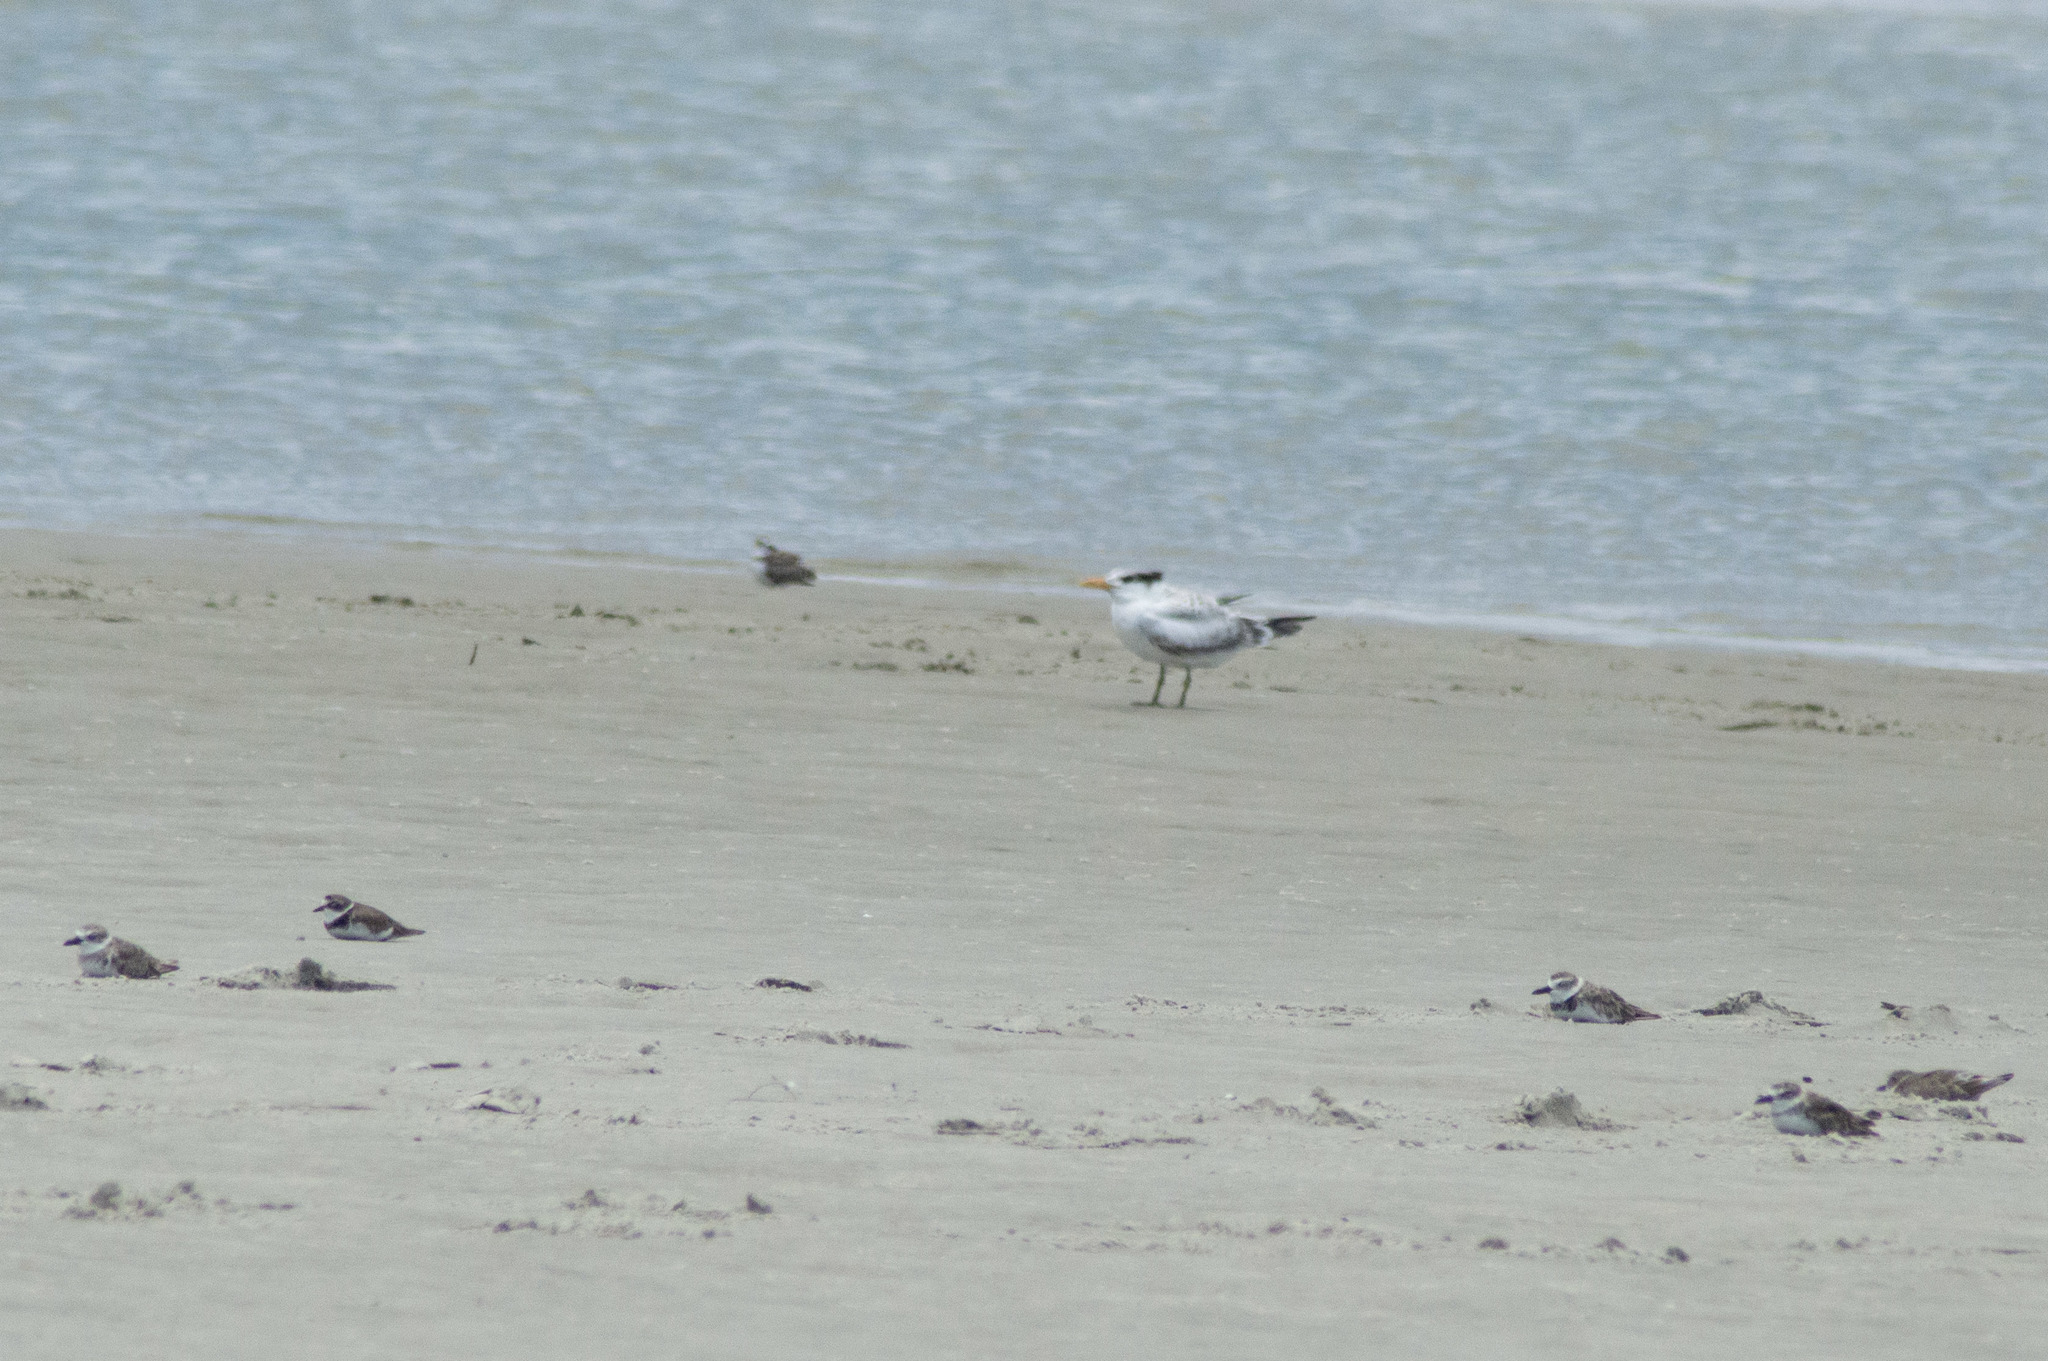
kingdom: Animalia
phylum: Chordata
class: Aves
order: Charadriiformes
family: Charadriidae
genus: Anarhynchus
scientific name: Anarhynchus
